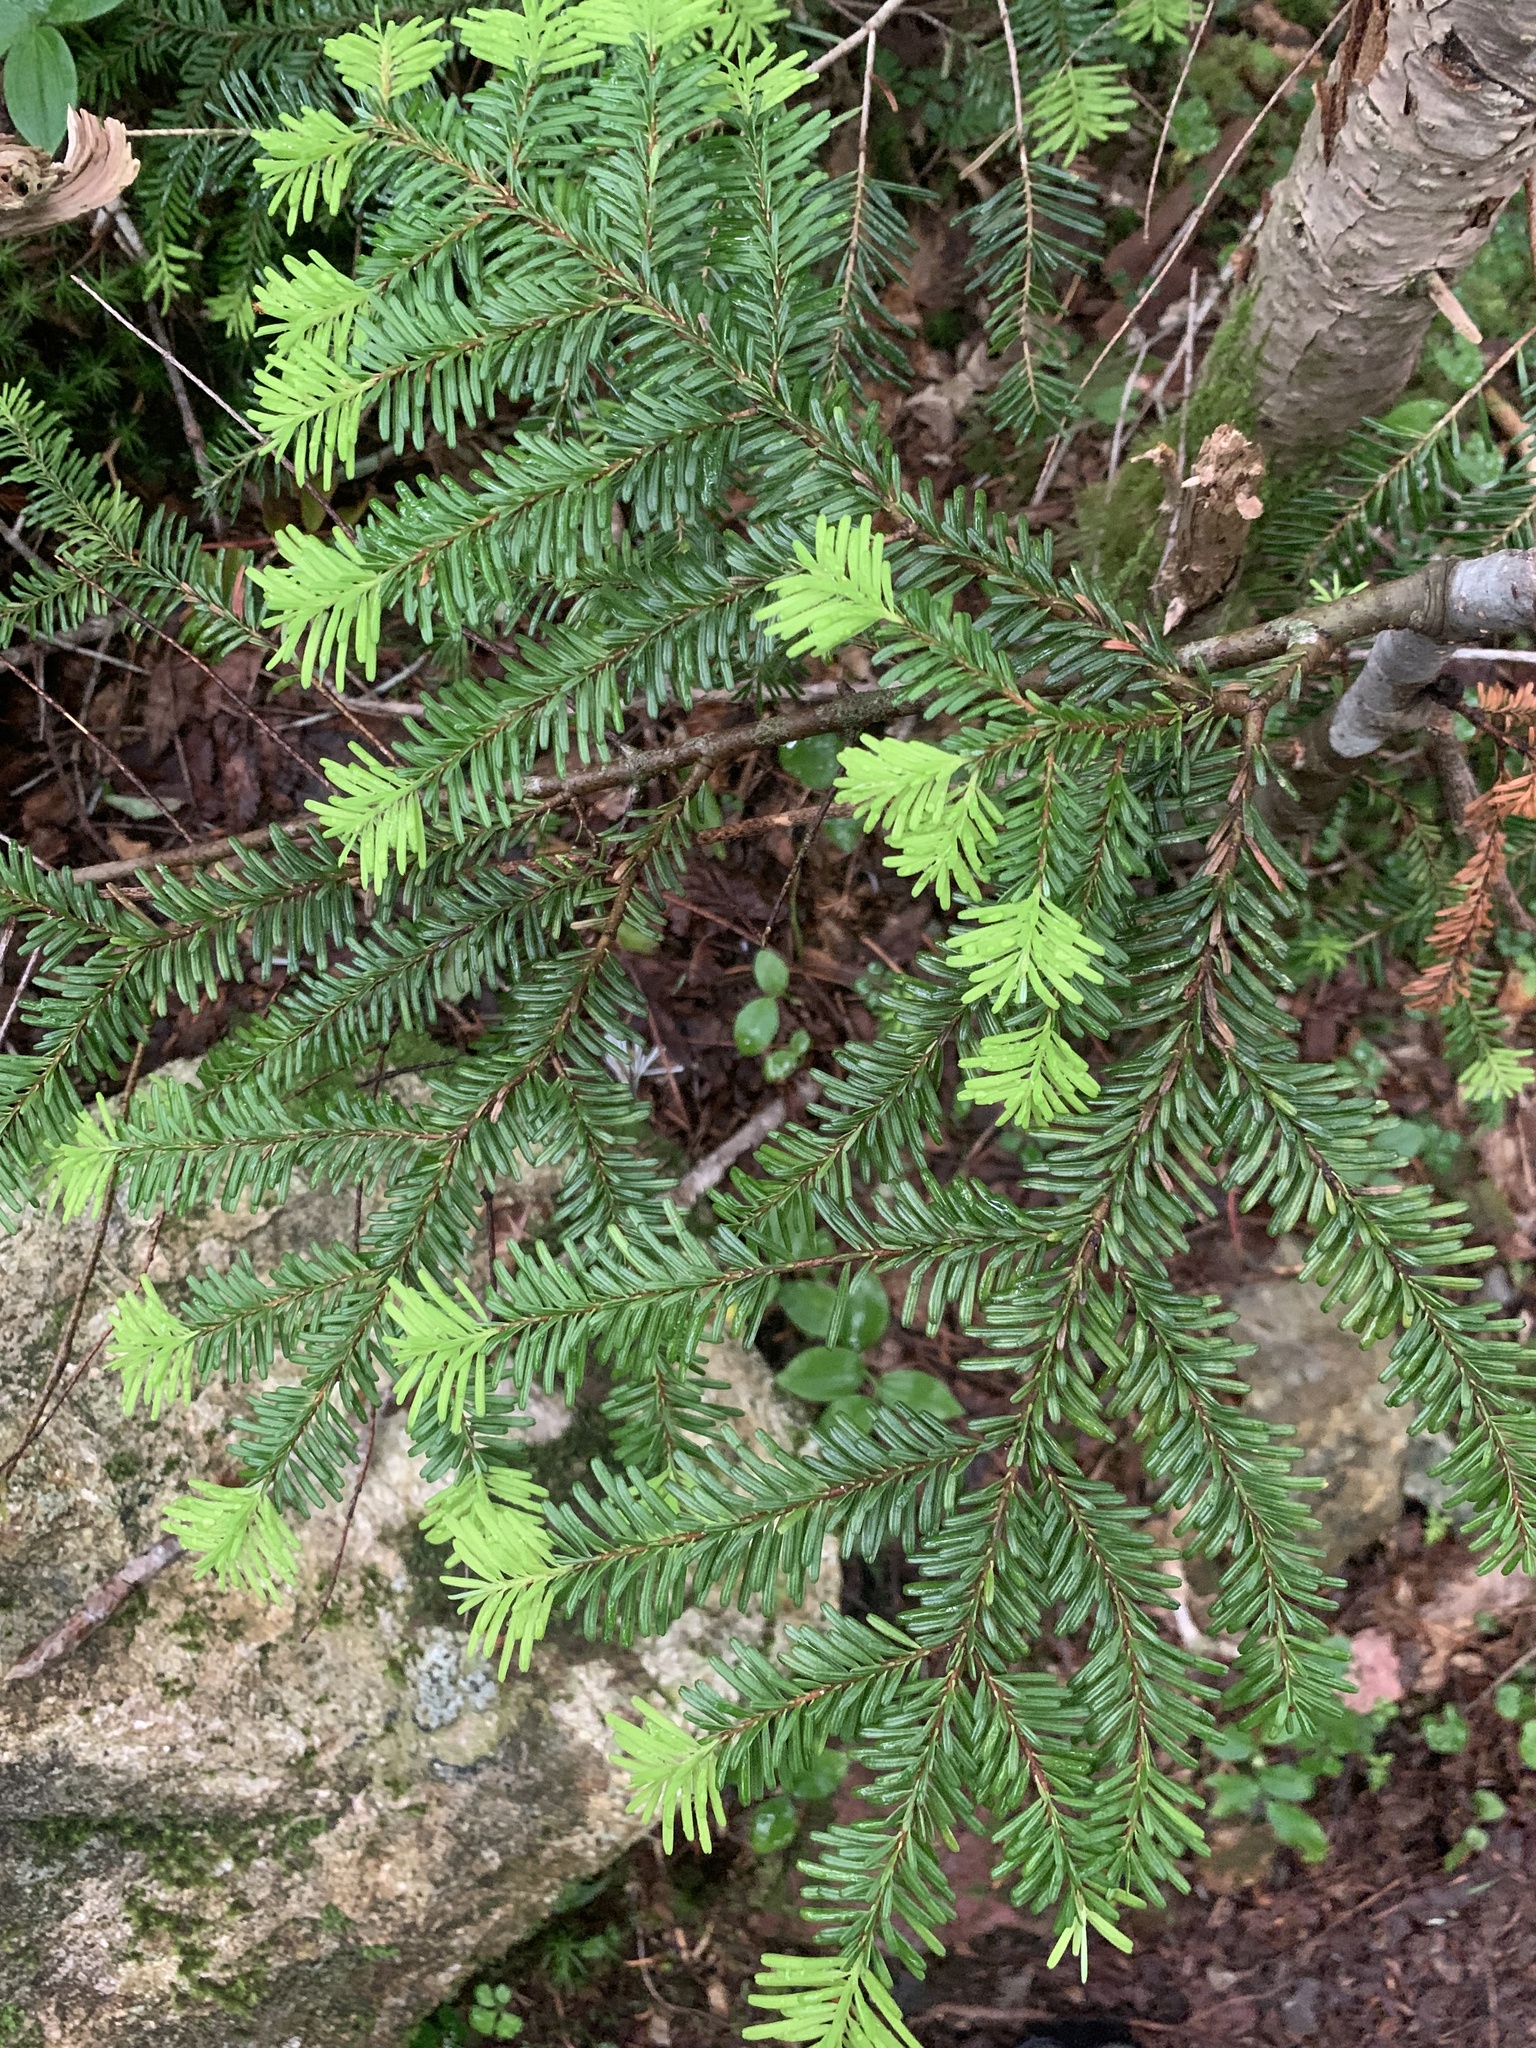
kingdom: Plantae
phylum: Tracheophyta
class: Pinopsida
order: Pinales
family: Pinaceae
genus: Abies
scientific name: Abies mariesii
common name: Marie's fir
